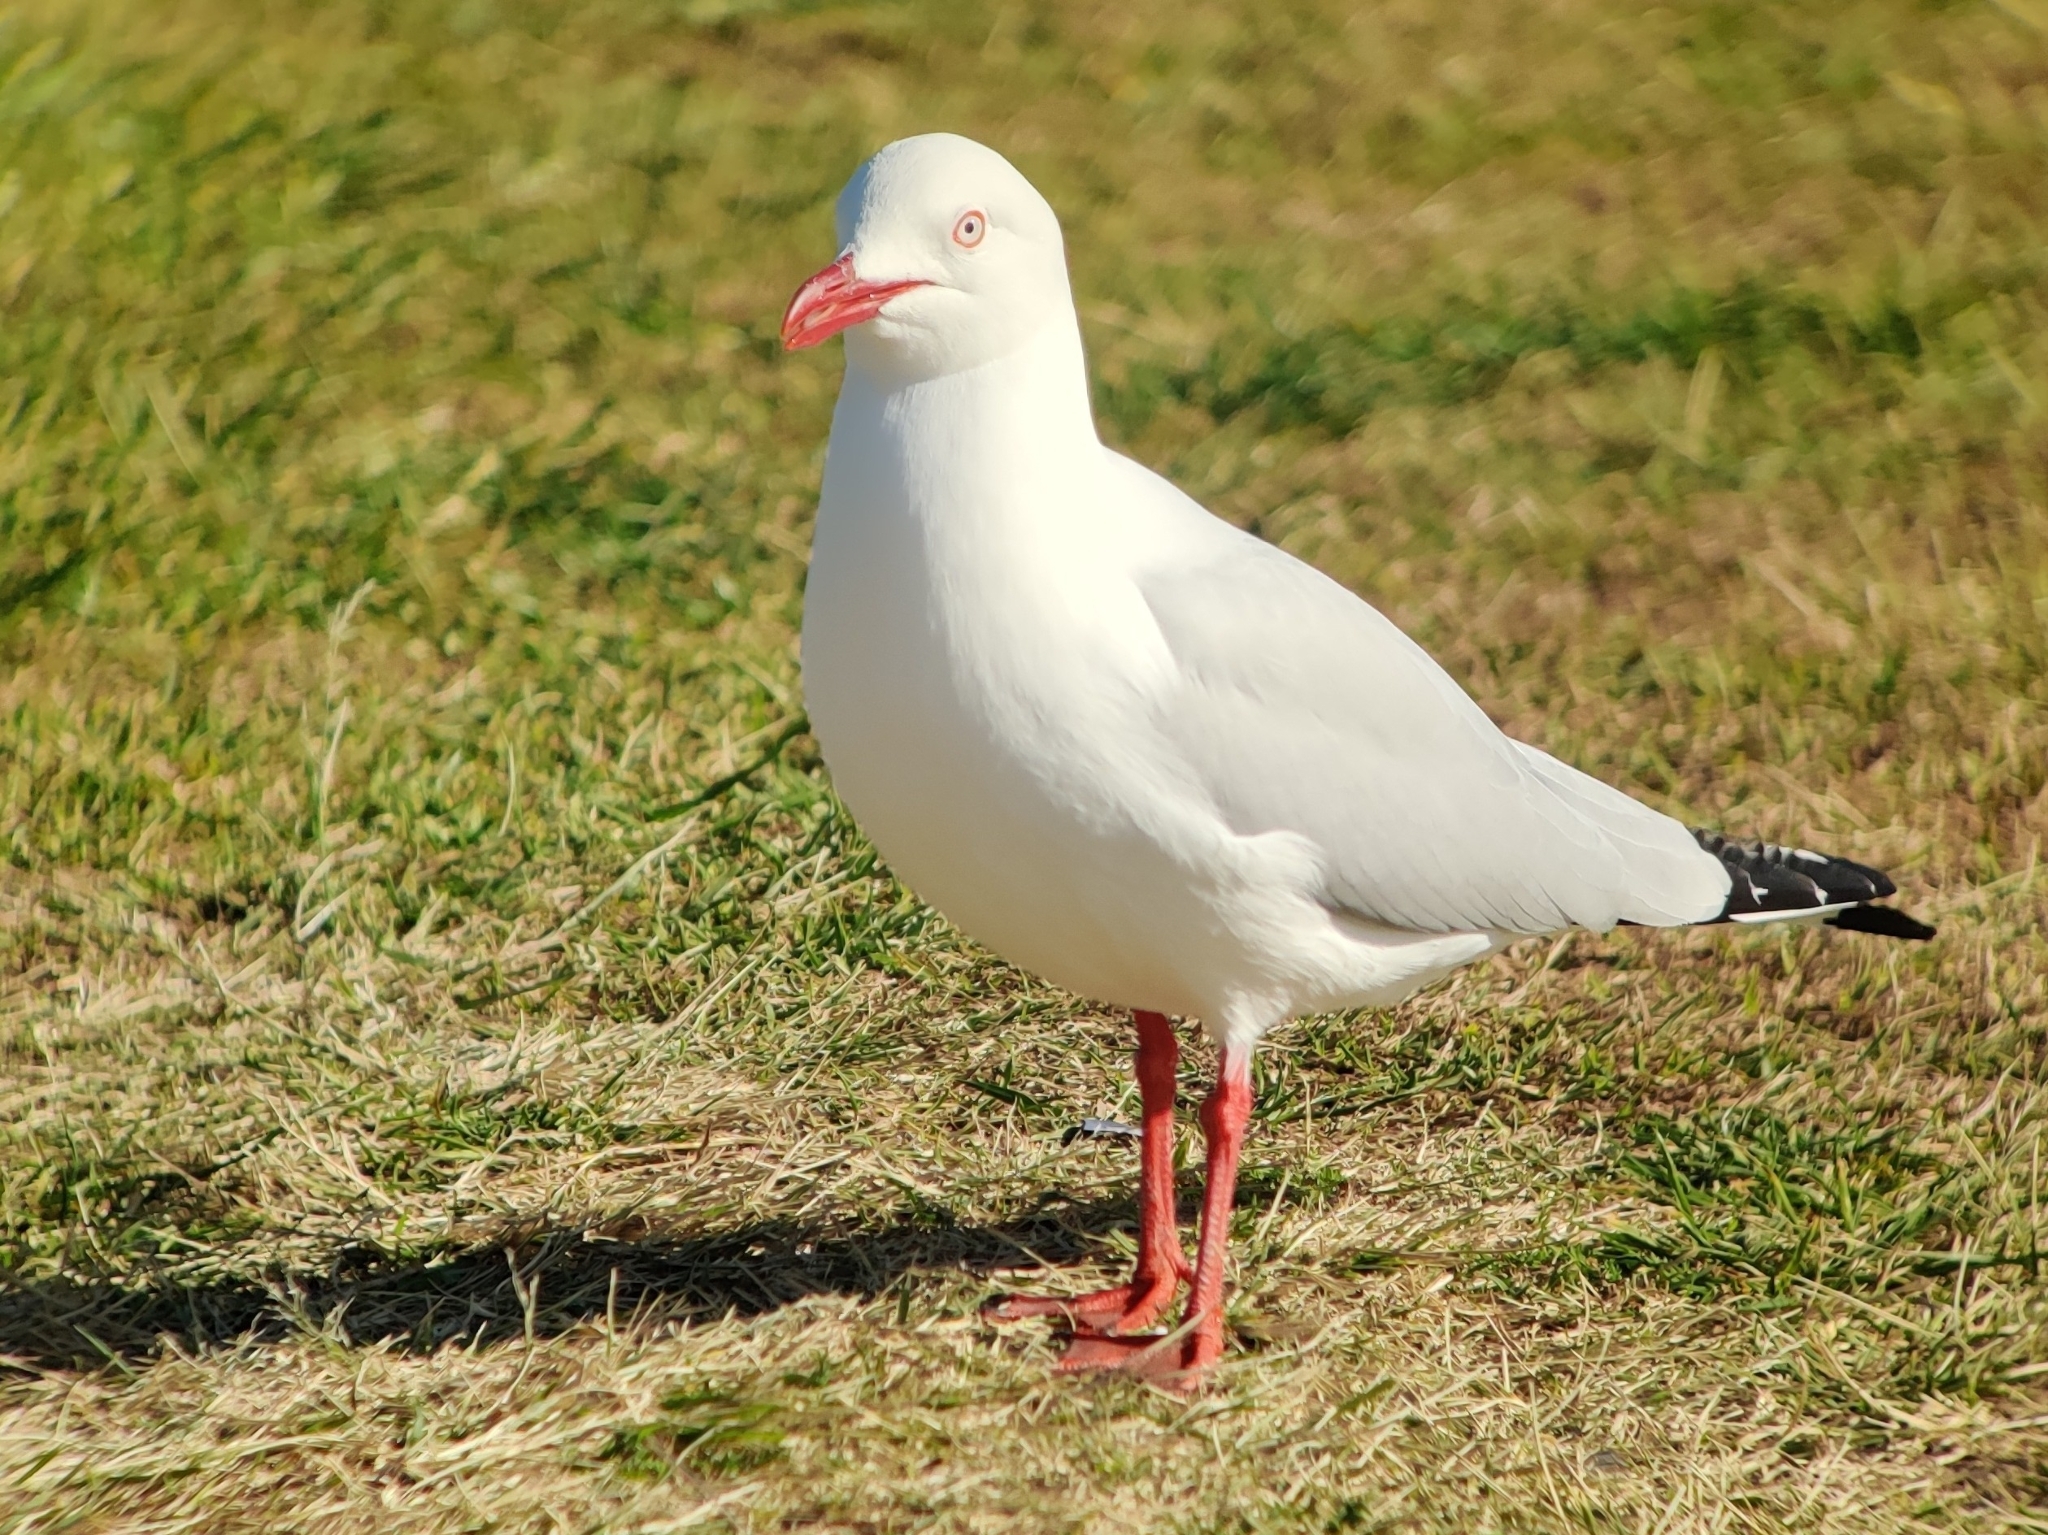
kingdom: Animalia
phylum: Chordata
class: Aves
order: Charadriiformes
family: Laridae
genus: Chroicocephalus
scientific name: Chroicocephalus novaehollandiae
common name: Silver gull
